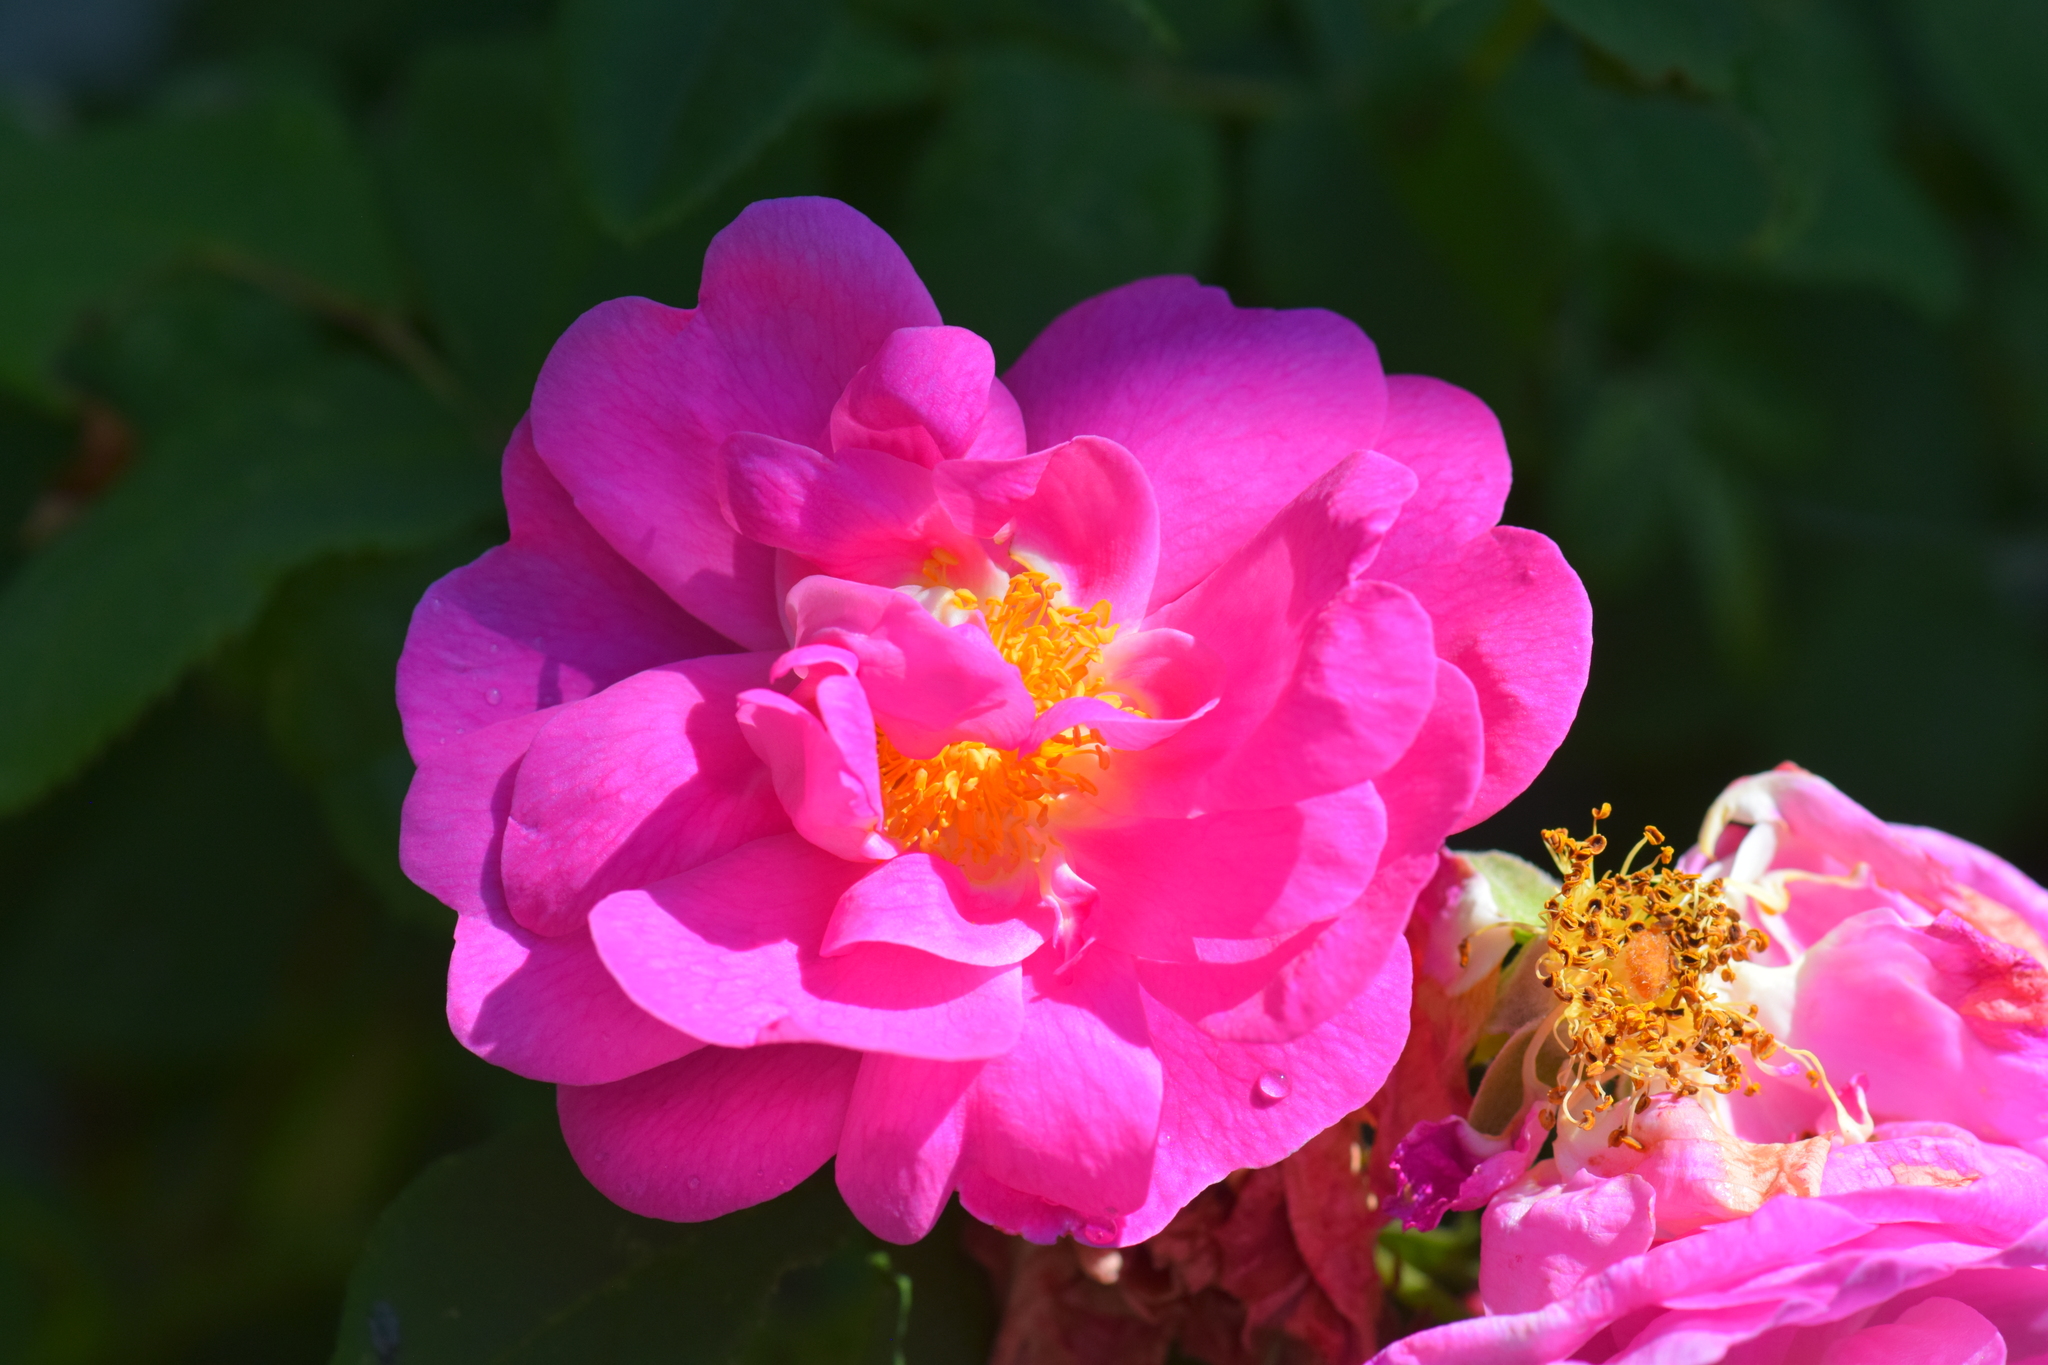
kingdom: Plantae
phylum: Tracheophyta
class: Magnoliopsida
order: Rosales
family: Rosaceae
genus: Rosa
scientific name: Rosa rugosa
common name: Japanese rose
